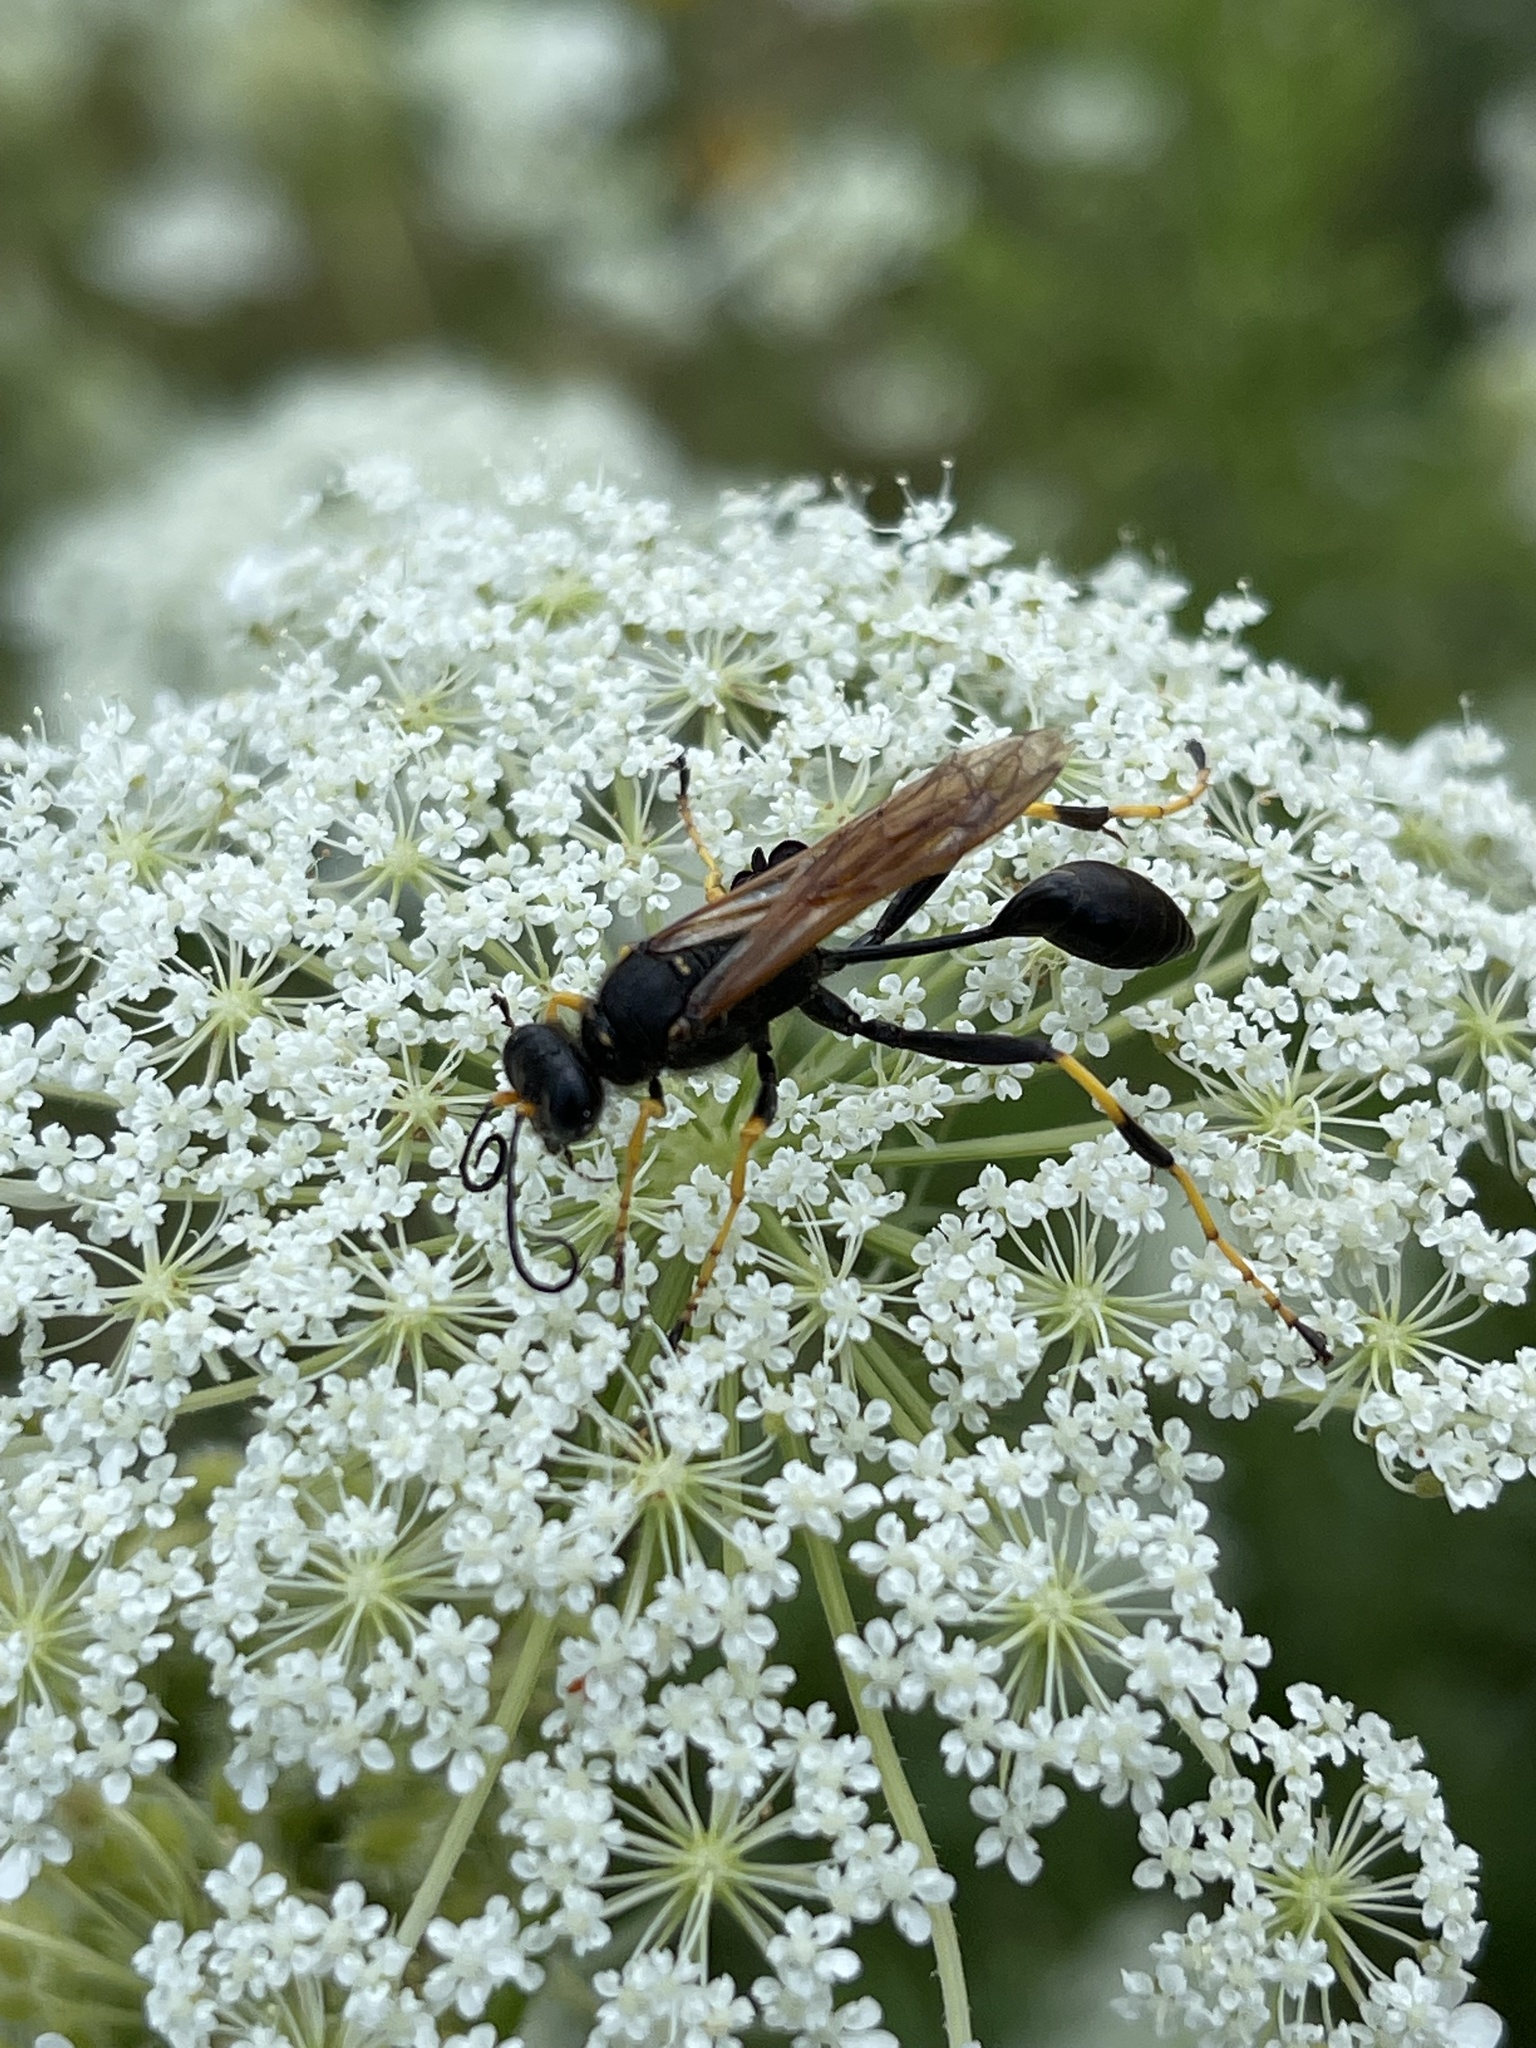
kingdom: Animalia
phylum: Arthropoda
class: Insecta
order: Hymenoptera
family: Sphecidae
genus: Sceliphron
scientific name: Sceliphron caementarium
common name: Mud dauber
